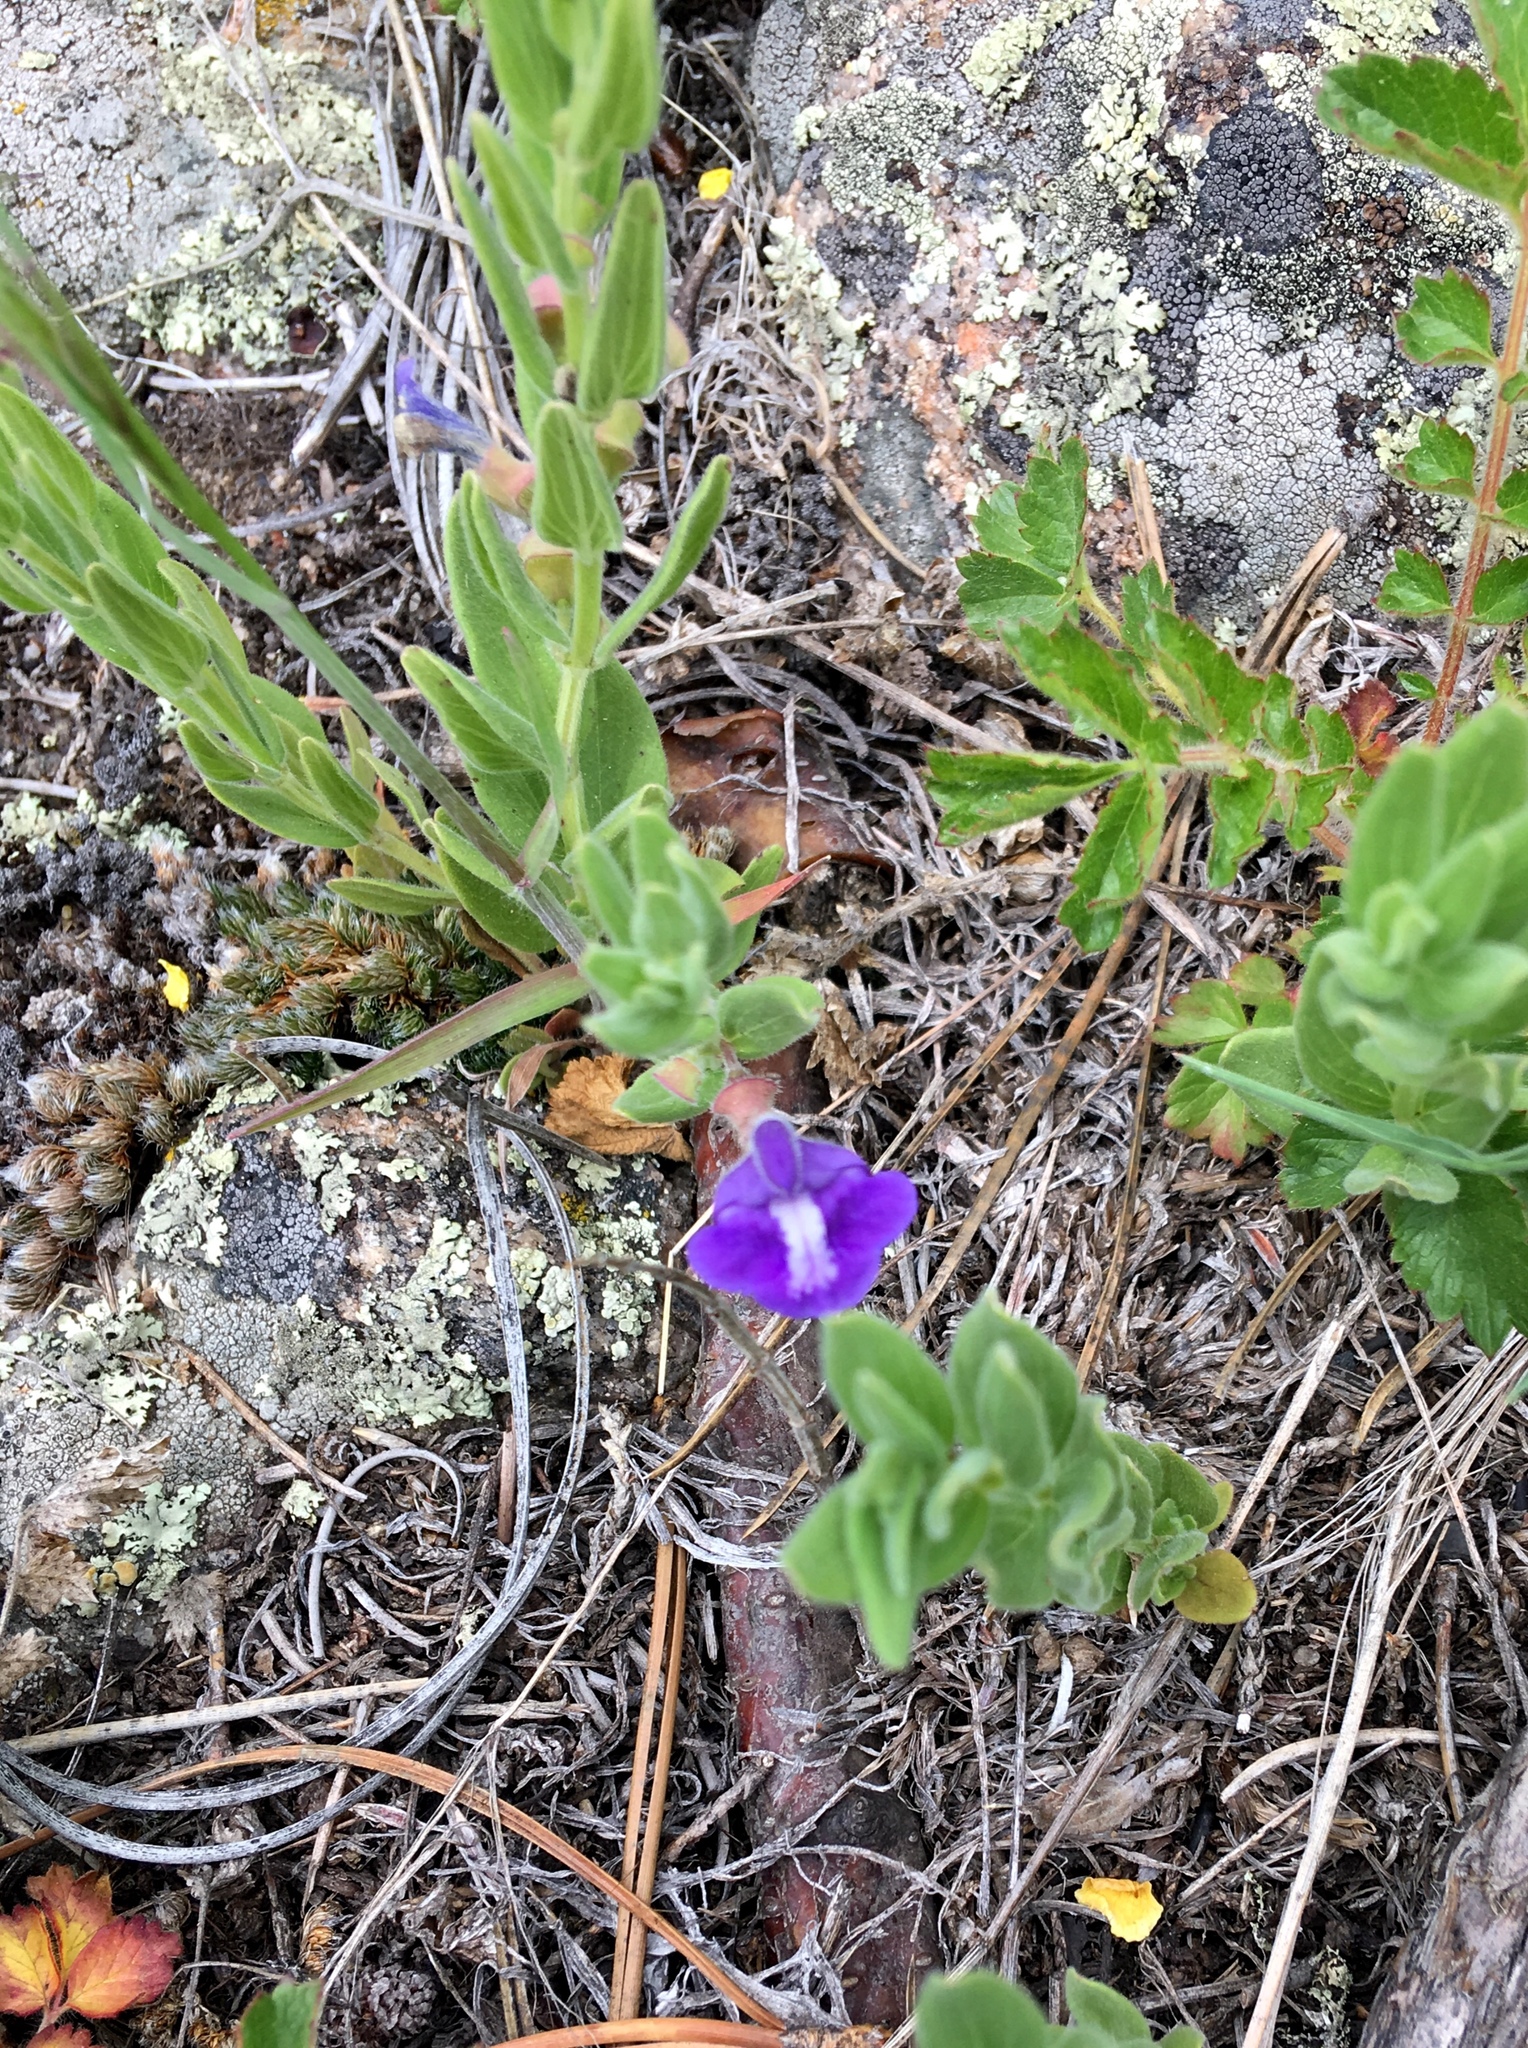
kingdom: Plantae
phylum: Tracheophyta
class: Magnoliopsida
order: Lamiales
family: Lamiaceae
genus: Scutellaria
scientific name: Scutellaria brittonii
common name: Britton's skullcap
